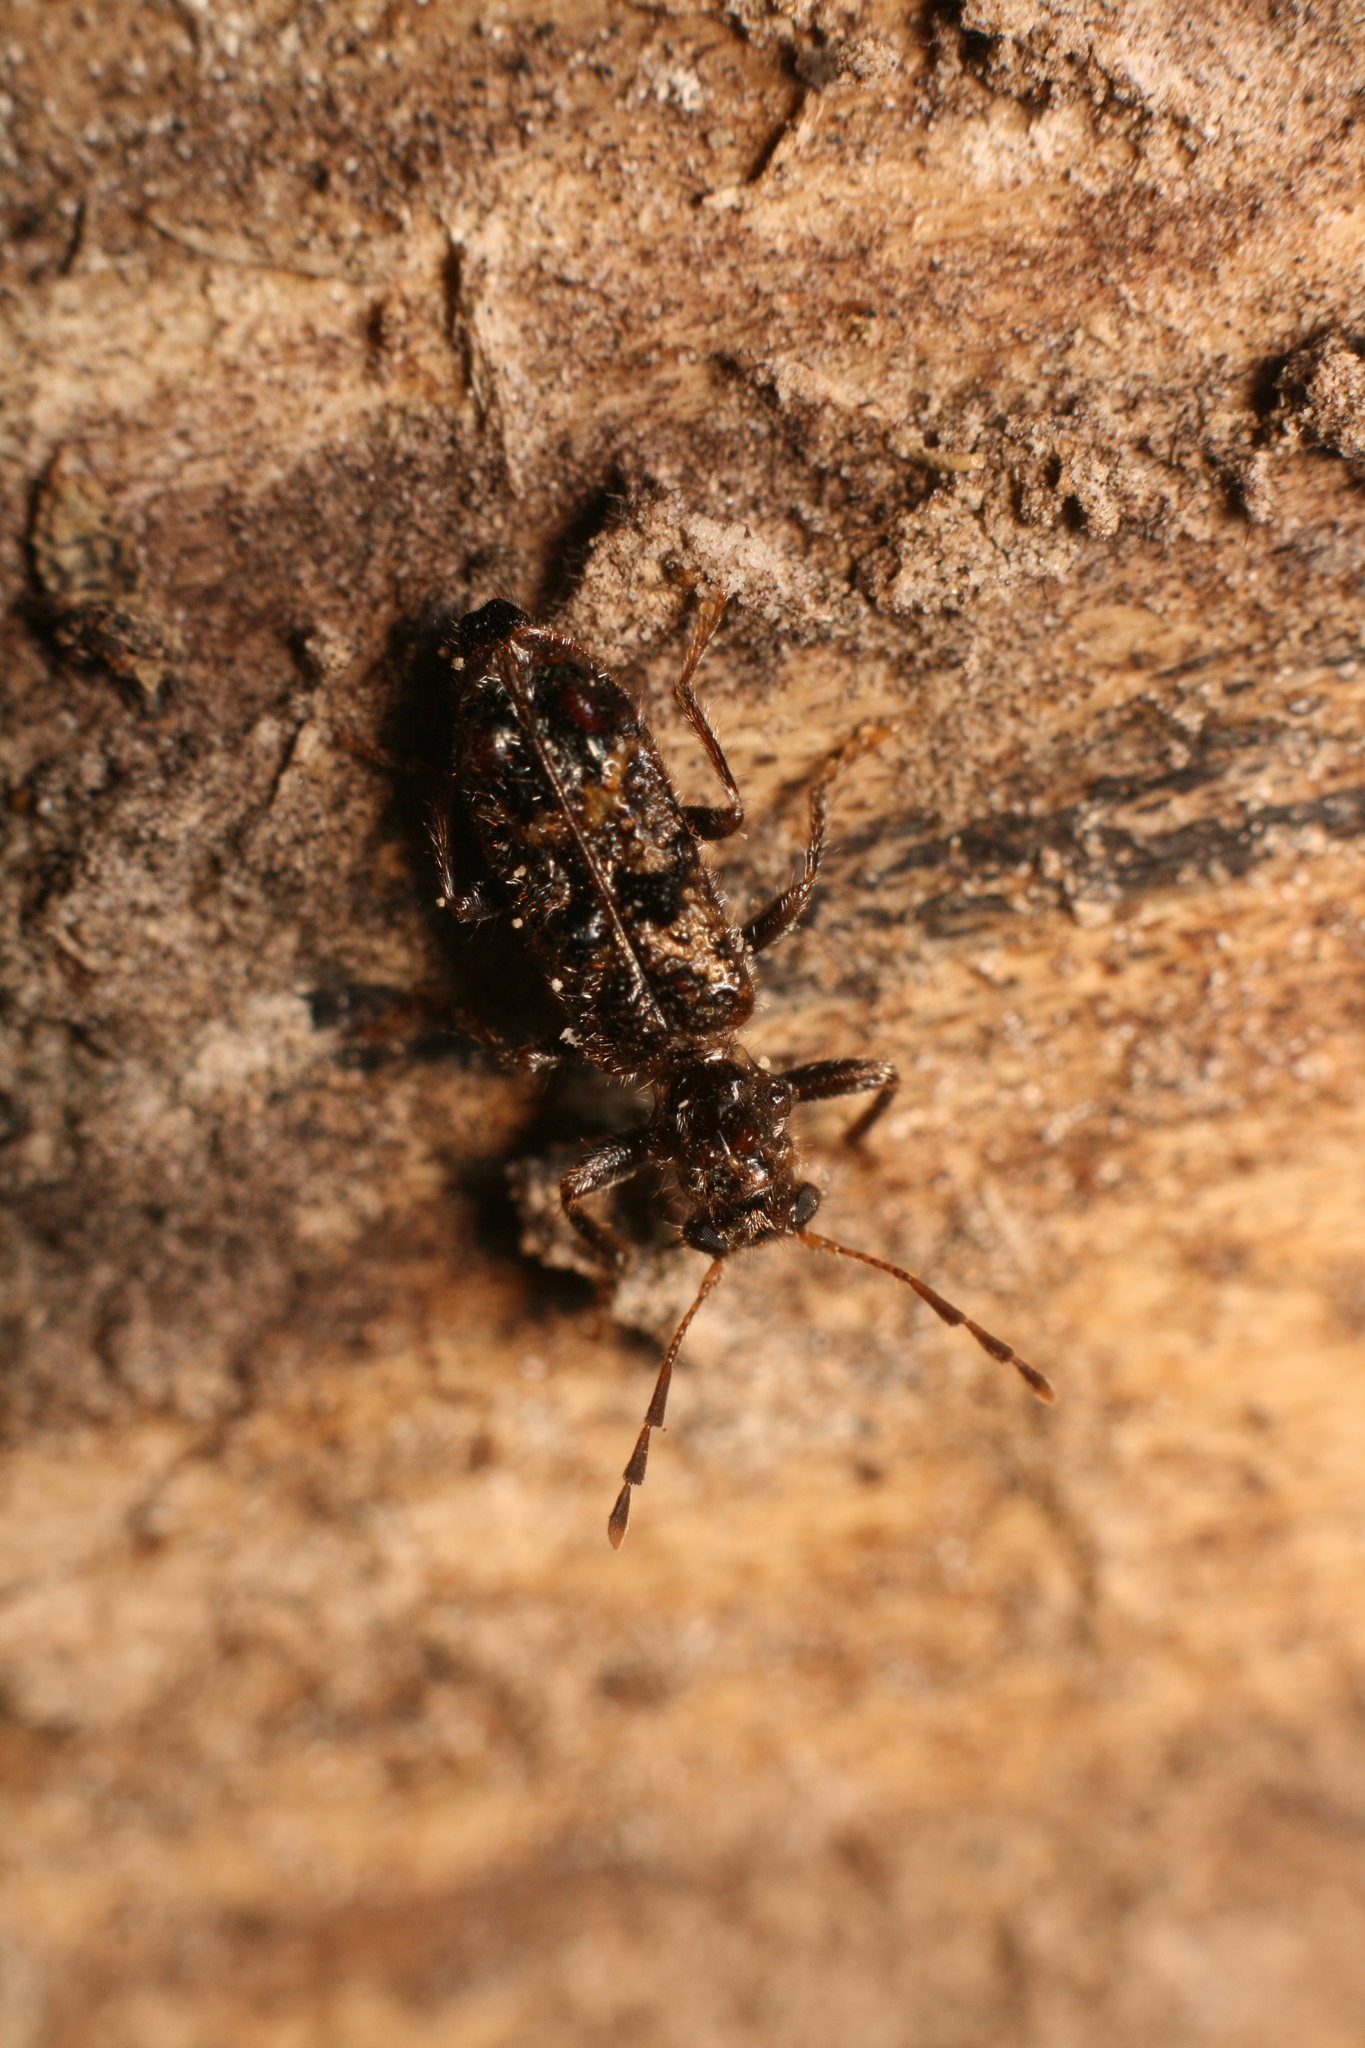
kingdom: Animalia
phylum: Arthropoda
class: Insecta
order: Coleoptera
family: Cleridae
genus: Phymatophaea
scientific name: Phymatophaea
